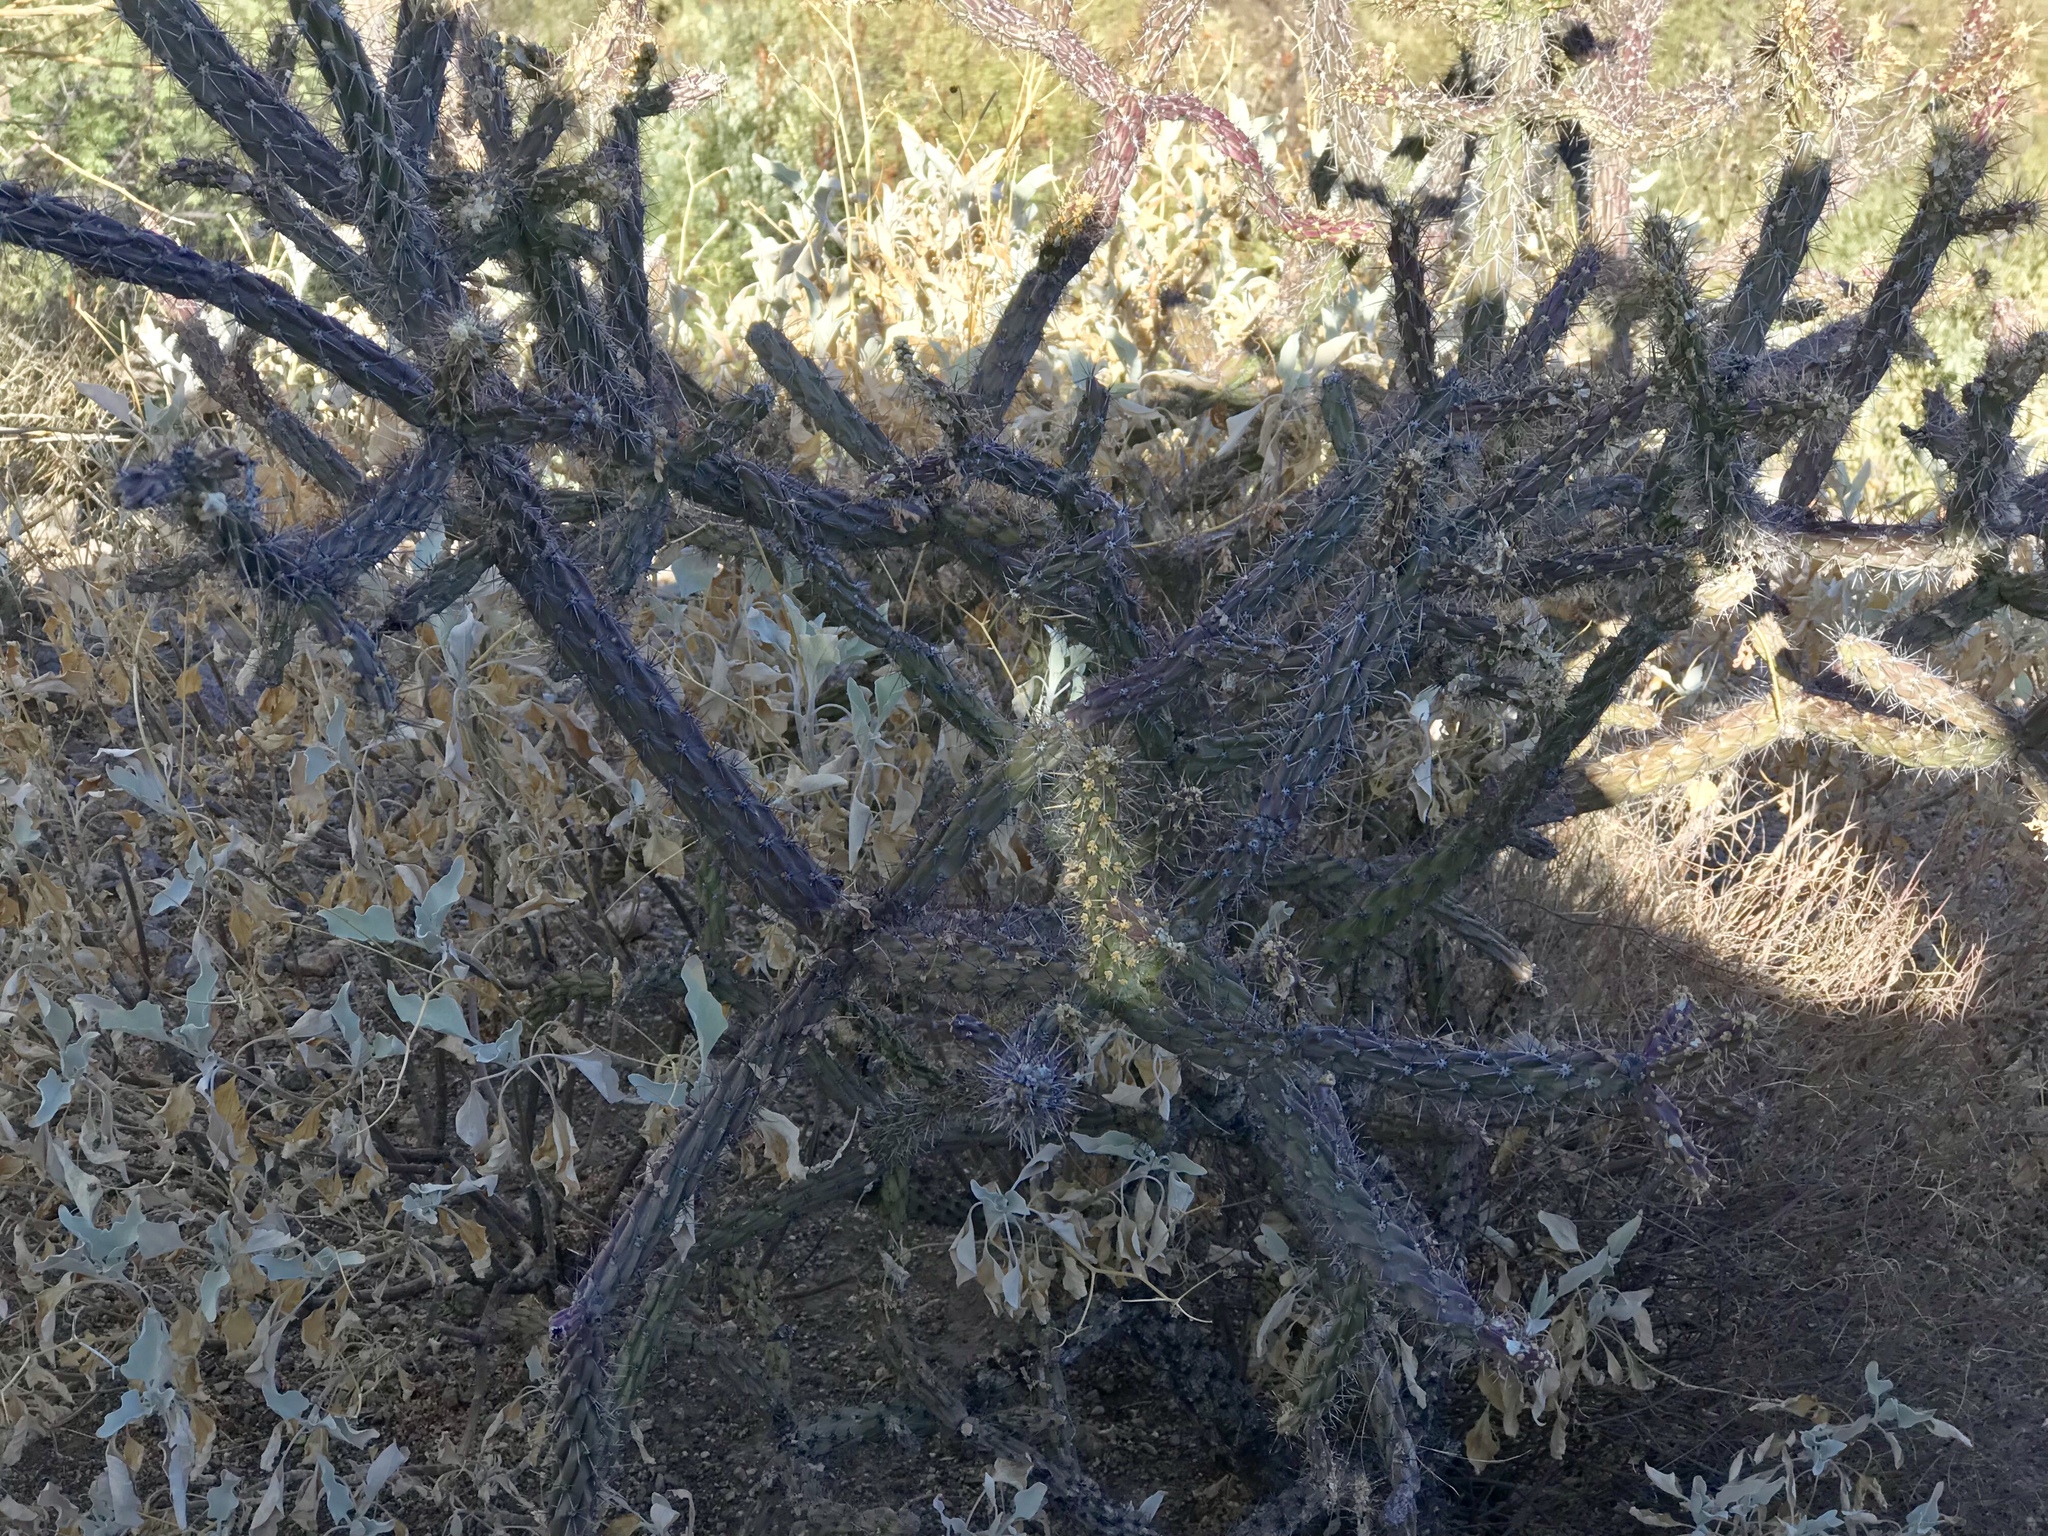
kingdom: Plantae
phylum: Tracheophyta
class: Magnoliopsida
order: Caryophyllales
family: Cactaceae
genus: Cylindropuntia
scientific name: Cylindropuntia thurberi
